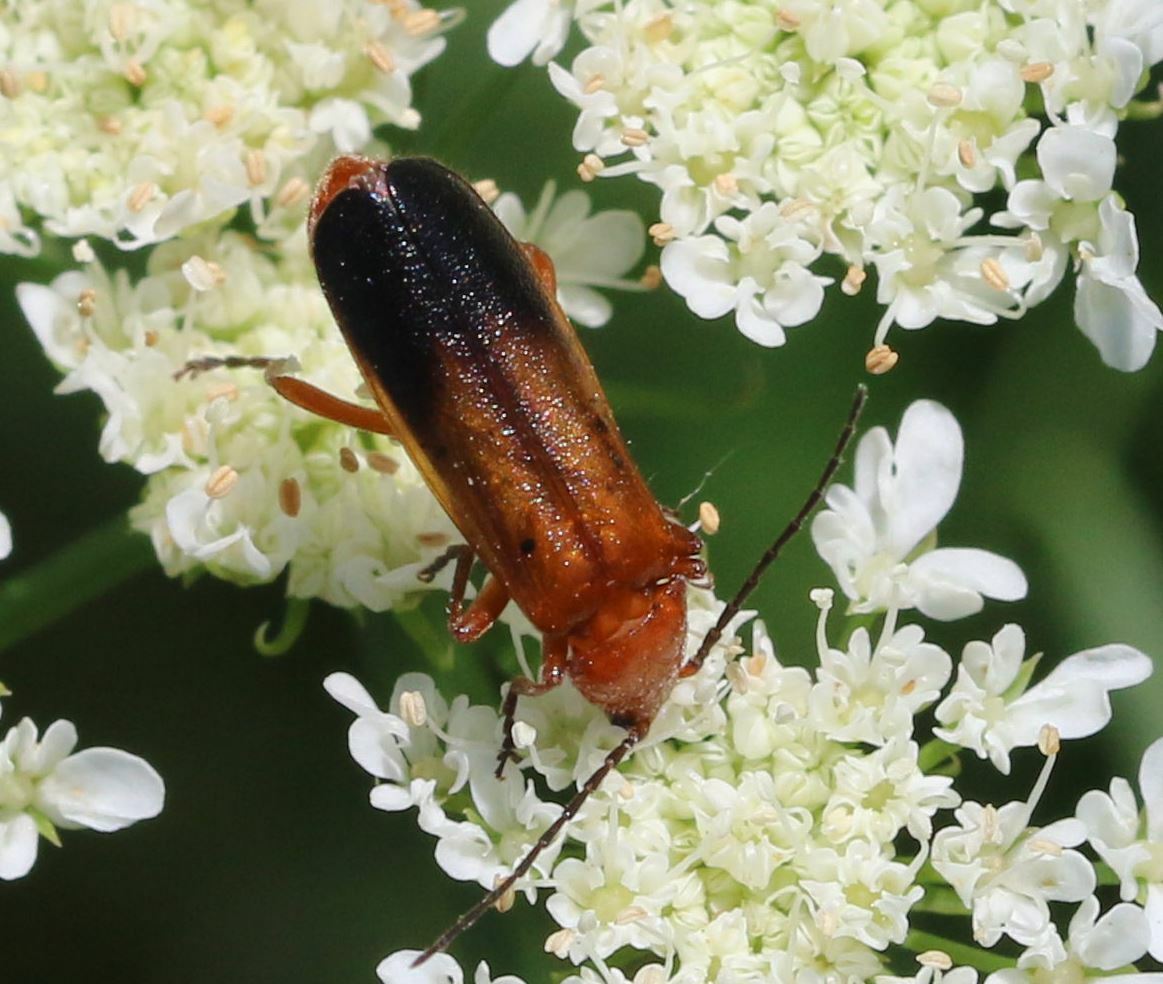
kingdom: Animalia
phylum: Arthropoda
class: Insecta
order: Coleoptera
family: Cantharidae
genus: Rhagonycha
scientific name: Rhagonycha fulva
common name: Common red soldier beetle
